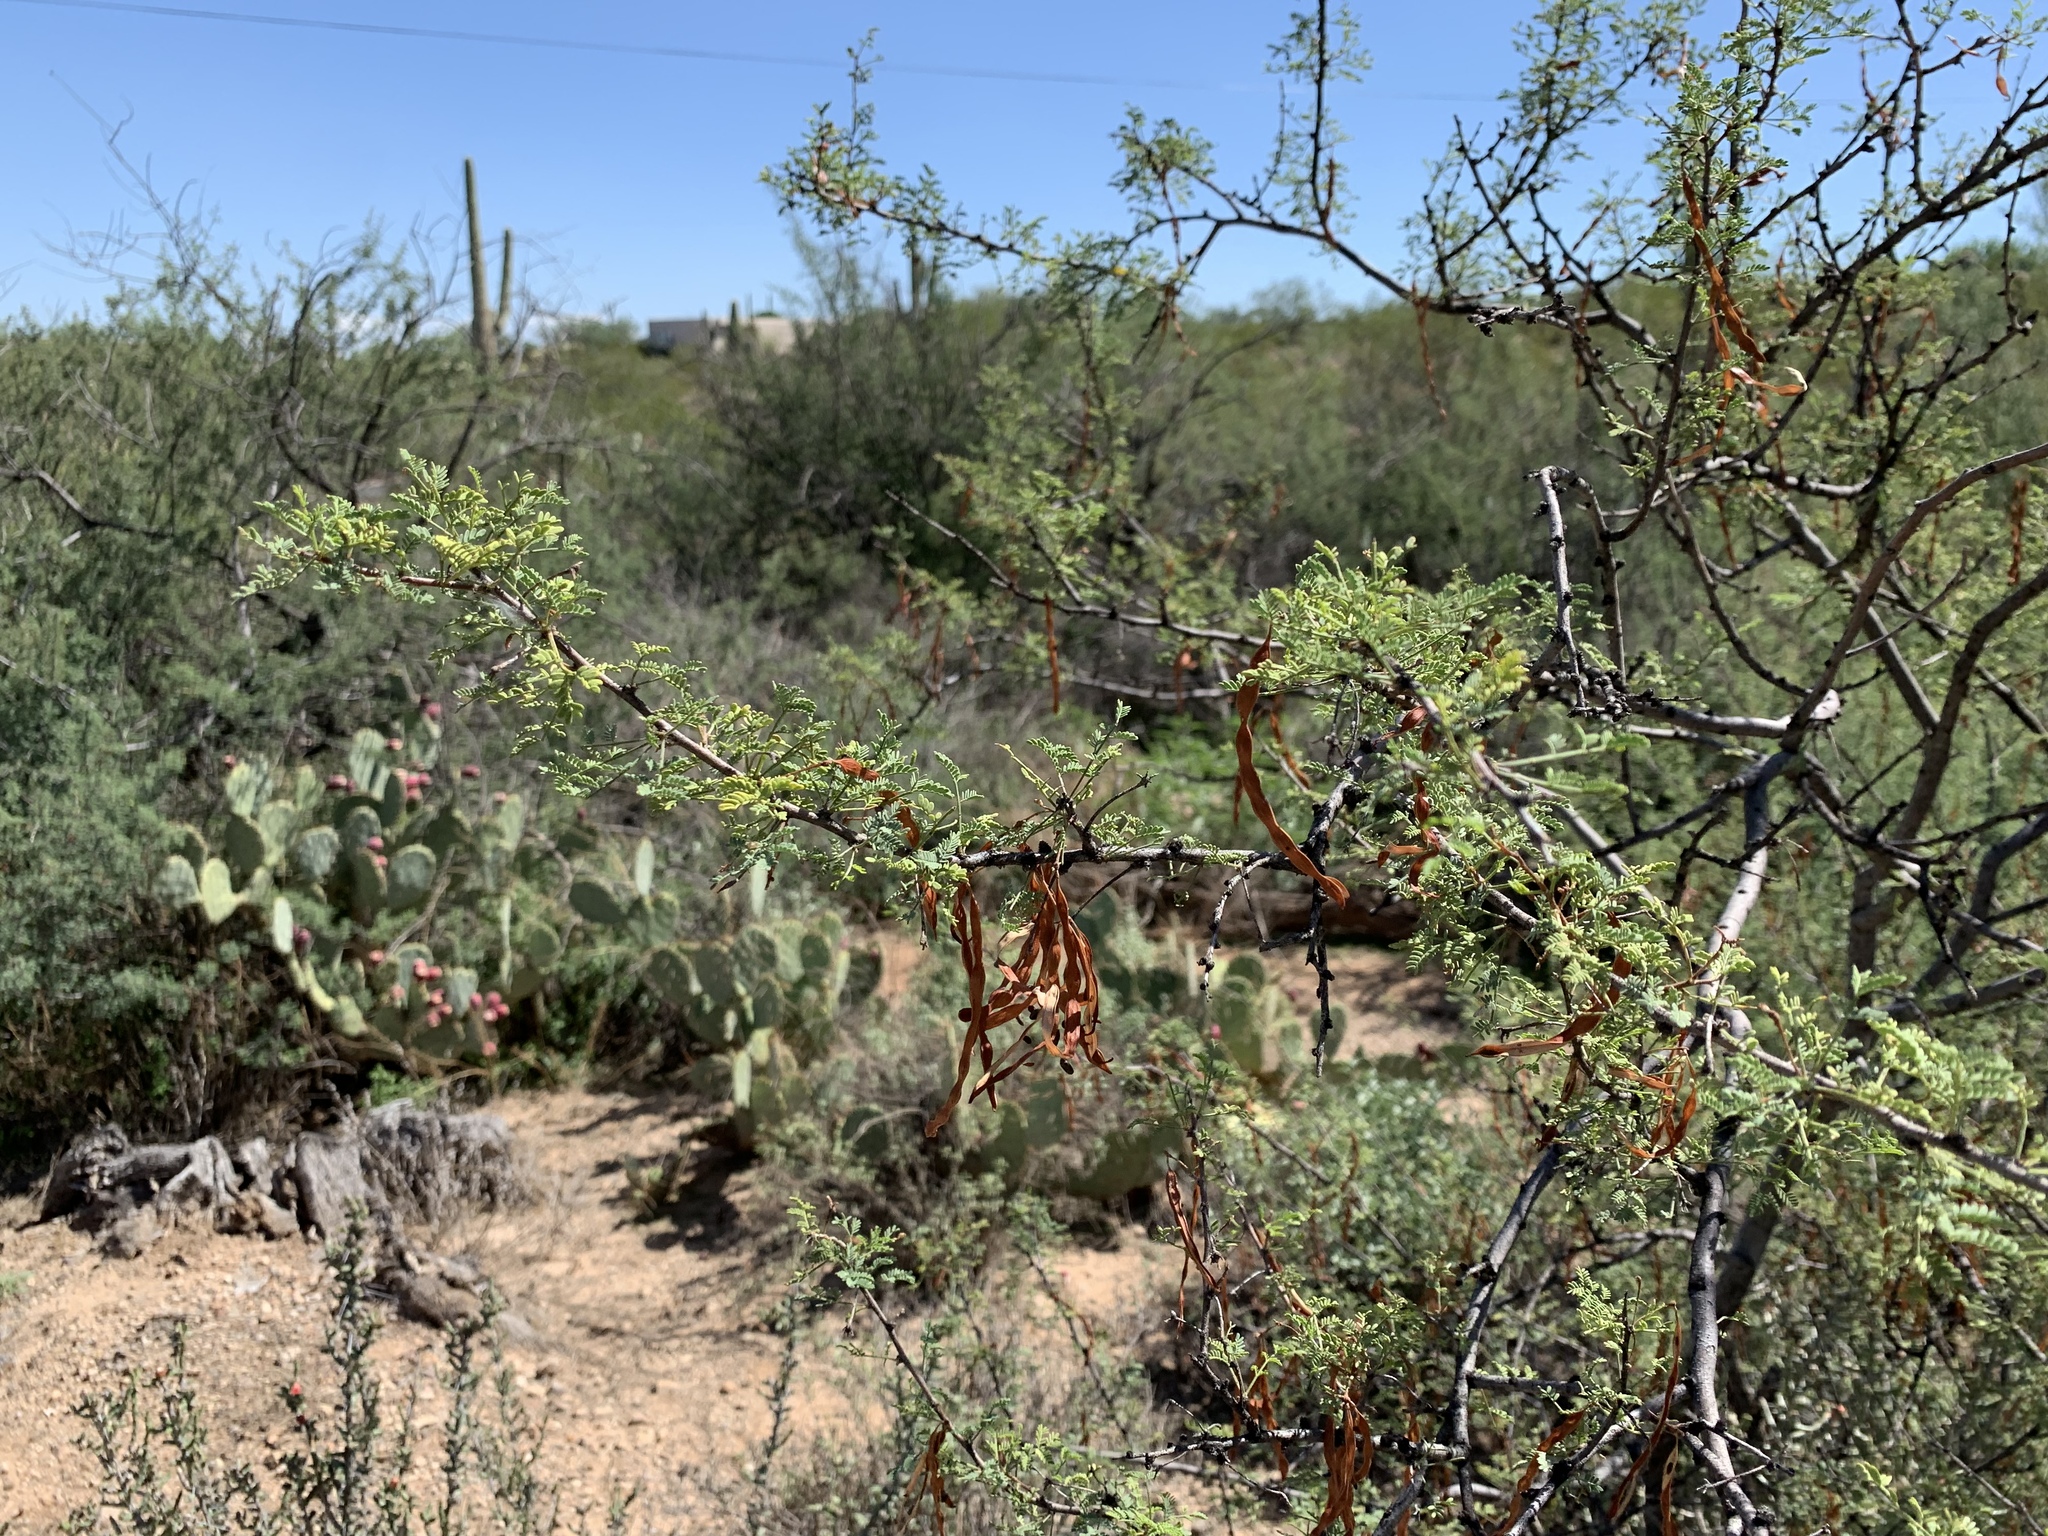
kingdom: Plantae
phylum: Tracheophyta
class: Magnoliopsida
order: Fabales
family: Fabaceae
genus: Vachellia
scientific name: Vachellia constricta
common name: Mescat acacia
